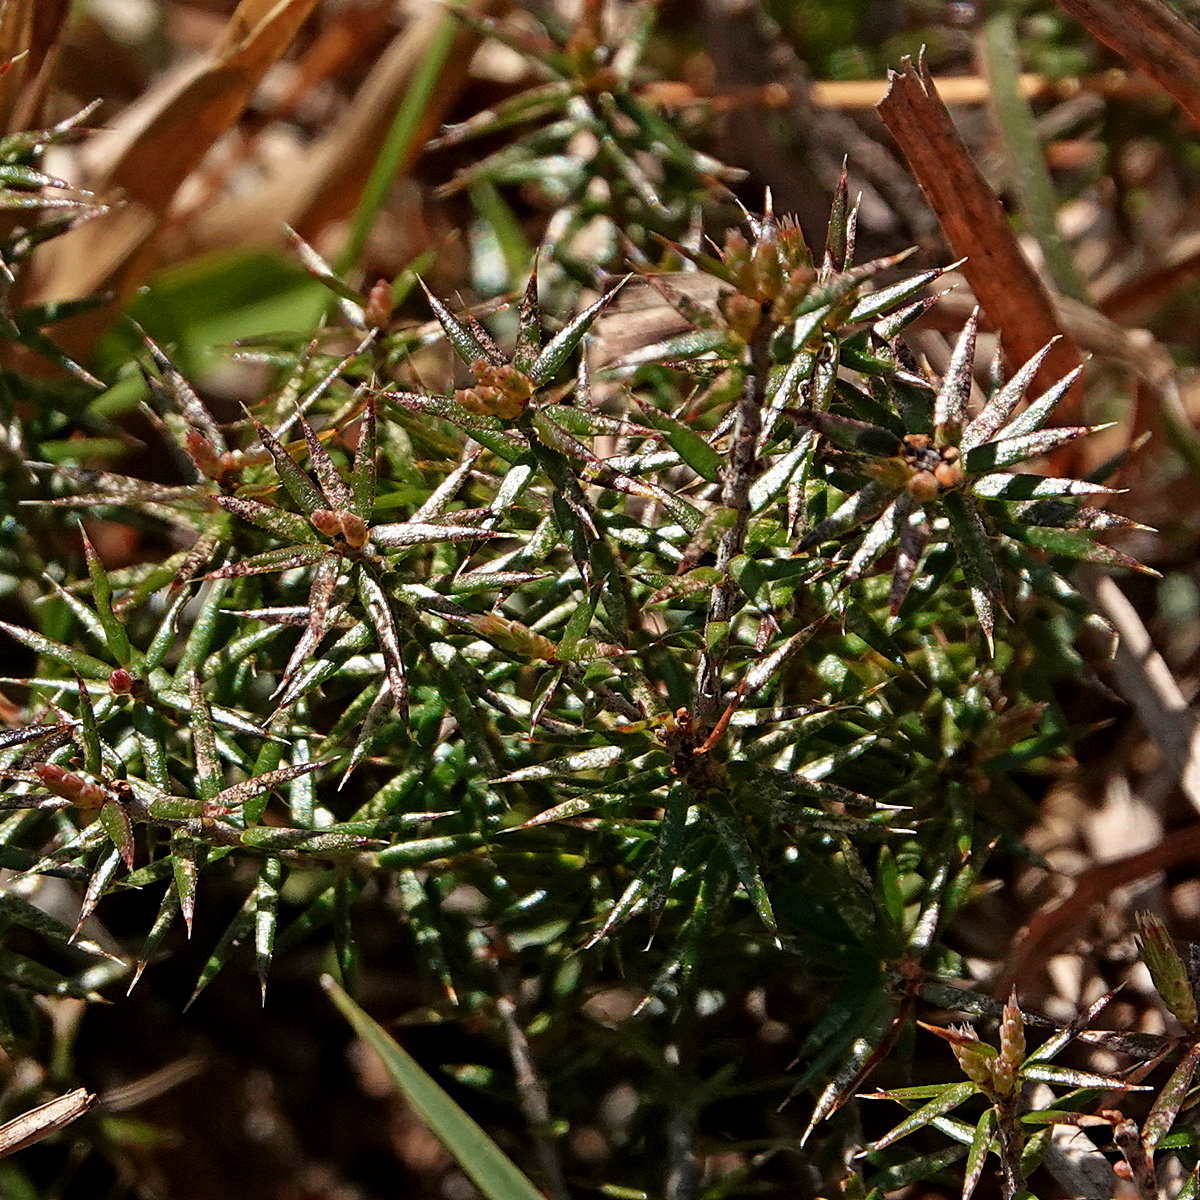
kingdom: Plantae
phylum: Tracheophyta
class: Magnoliopsida
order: Ericales
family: Ericaceae
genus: Acrotriche
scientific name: Acrotriche serrulata
